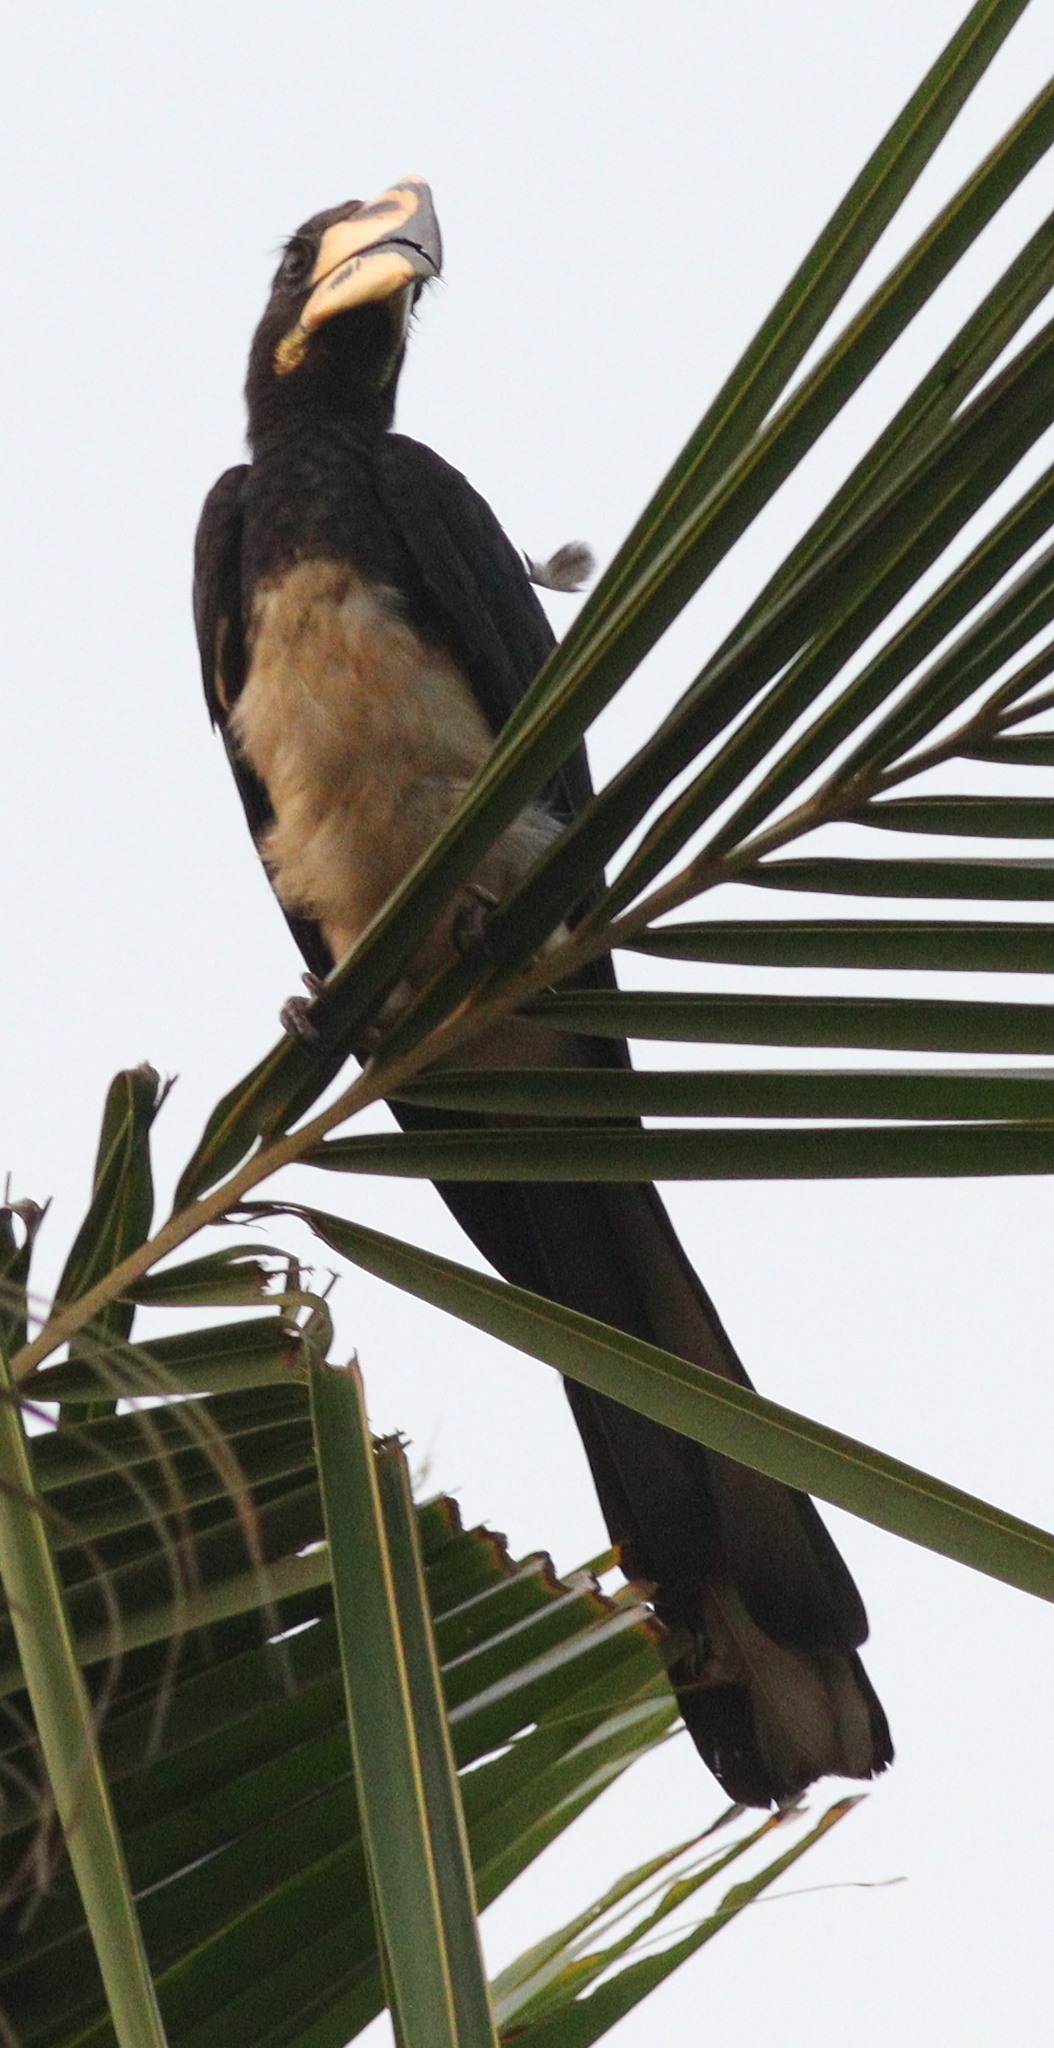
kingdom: Animalia
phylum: Chordata
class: Aves
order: Bucerotiformes
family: Bucerotidae
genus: Lophoceros
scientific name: Lophoceros fasciatus
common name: African pied hornbill
